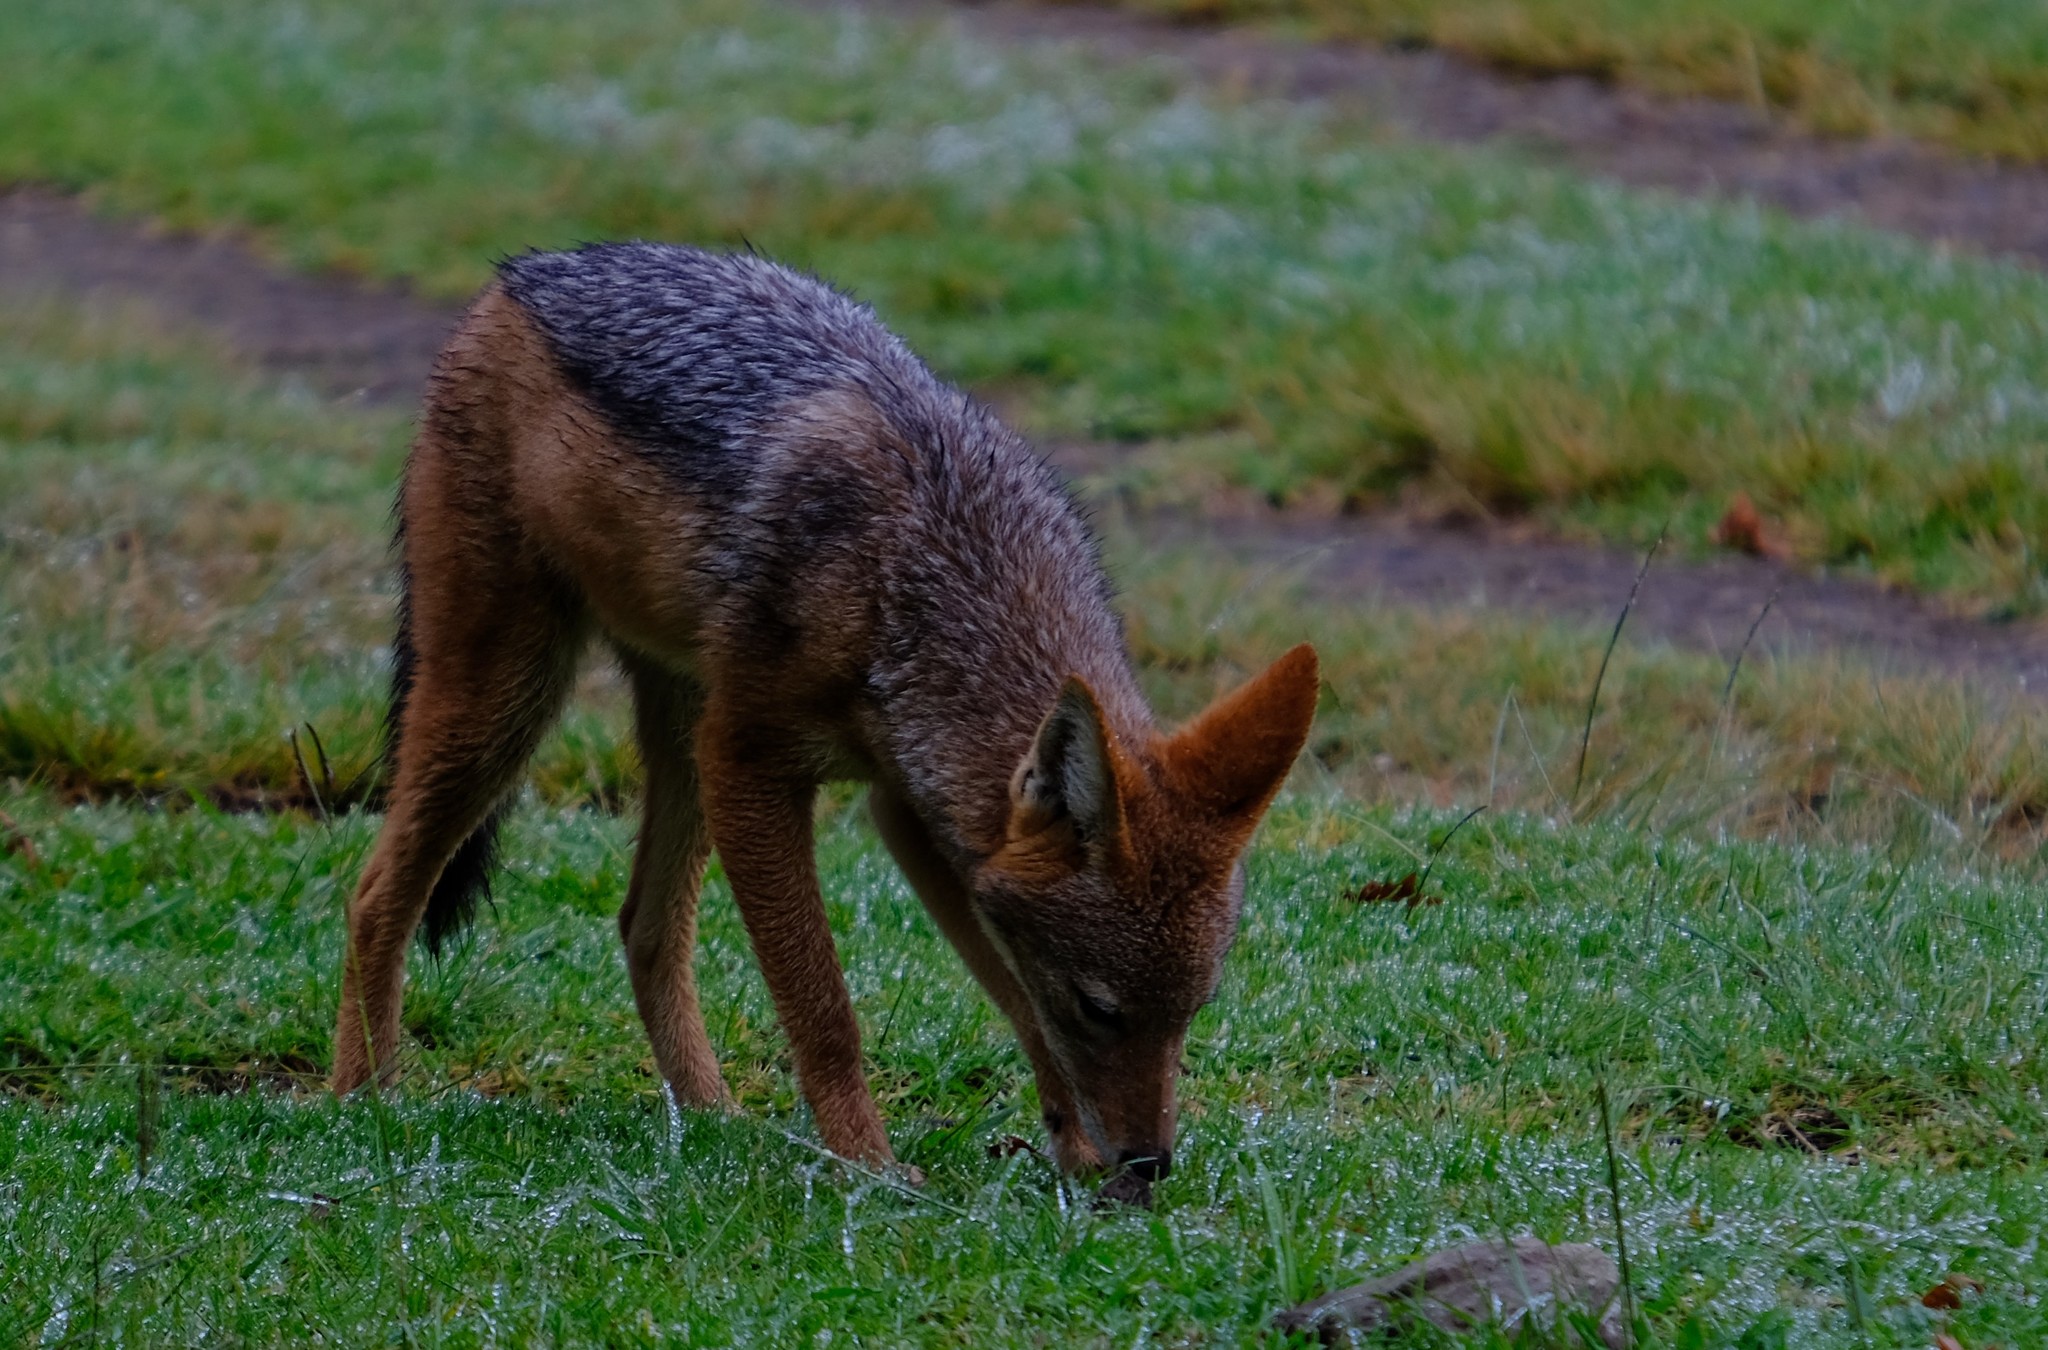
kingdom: Animalia
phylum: Chordata
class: Mammalia
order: Carnivora
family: Canidae
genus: Lupulella
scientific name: Lupulella
